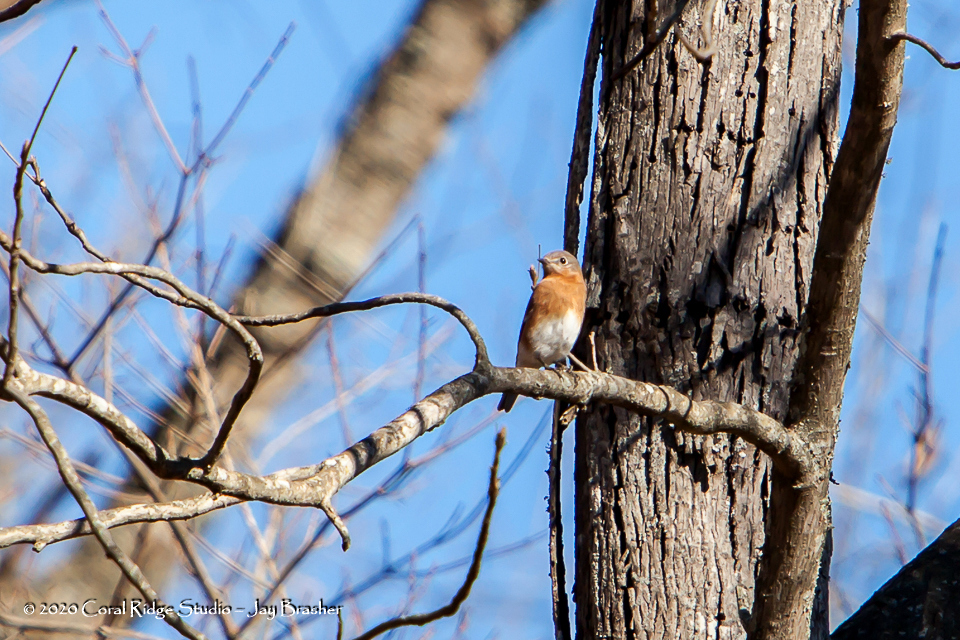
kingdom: Animalia
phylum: Chordata
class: Aves
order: Passeriformes
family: Turdidae
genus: Sialia
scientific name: Sialia sialis
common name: Eastern bluebird
